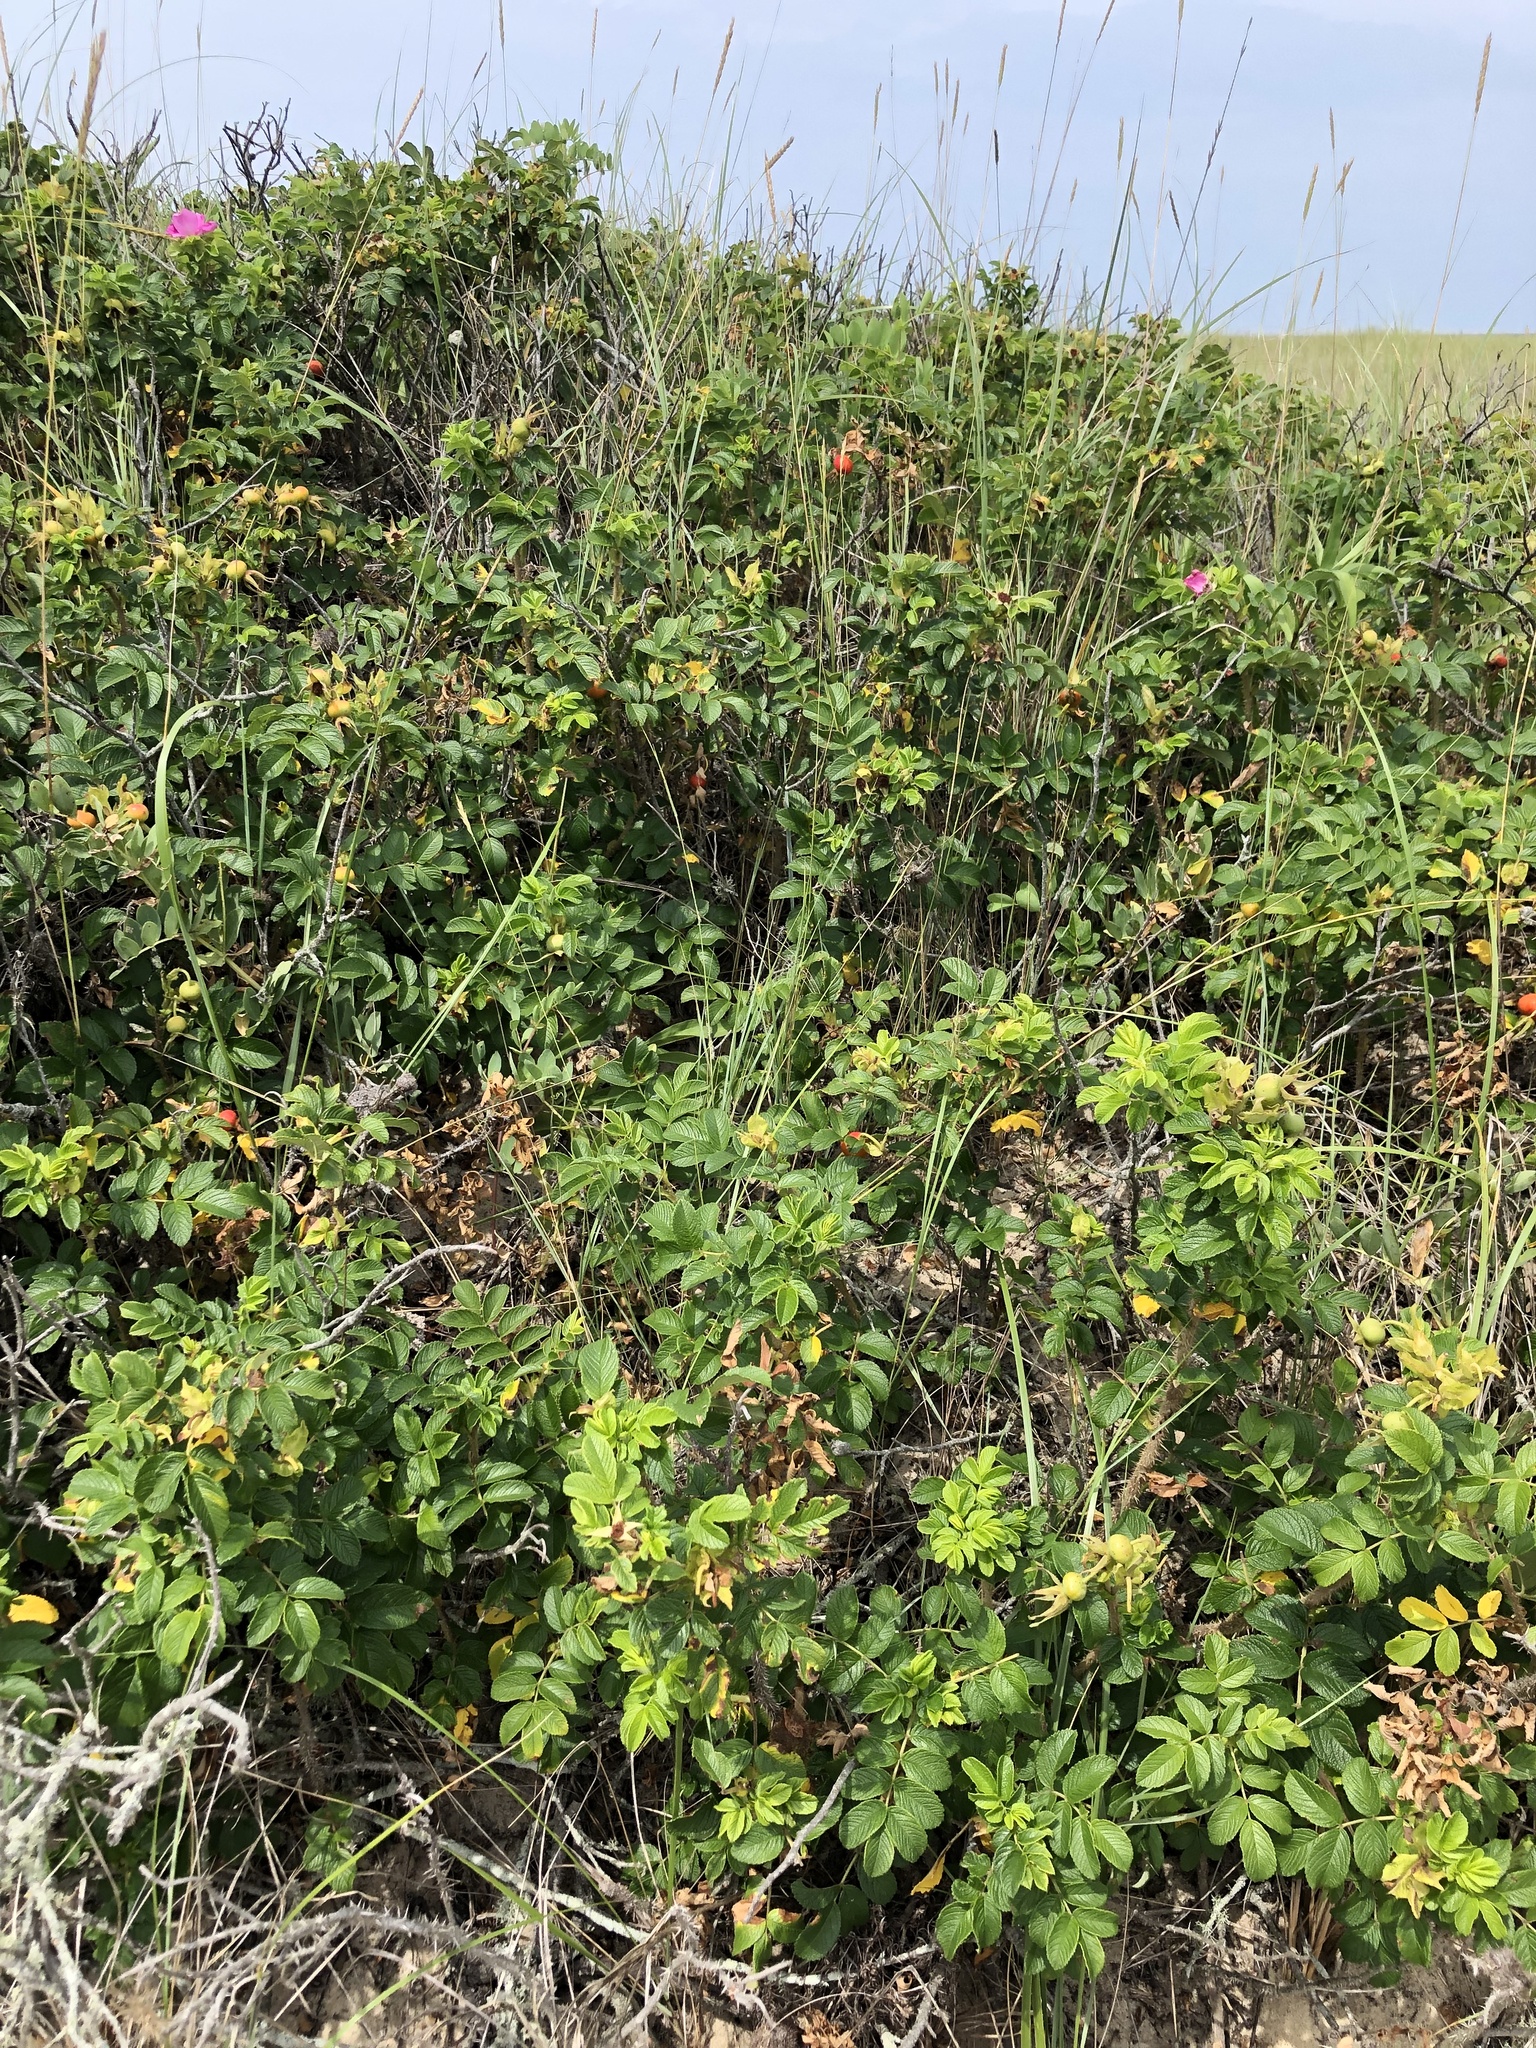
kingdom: Plantae
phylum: Tracheophyta
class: Magnoliopsida
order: Rosales
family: Rosaceae
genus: Rosa
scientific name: Rosa rugosa
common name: Japanese rose
